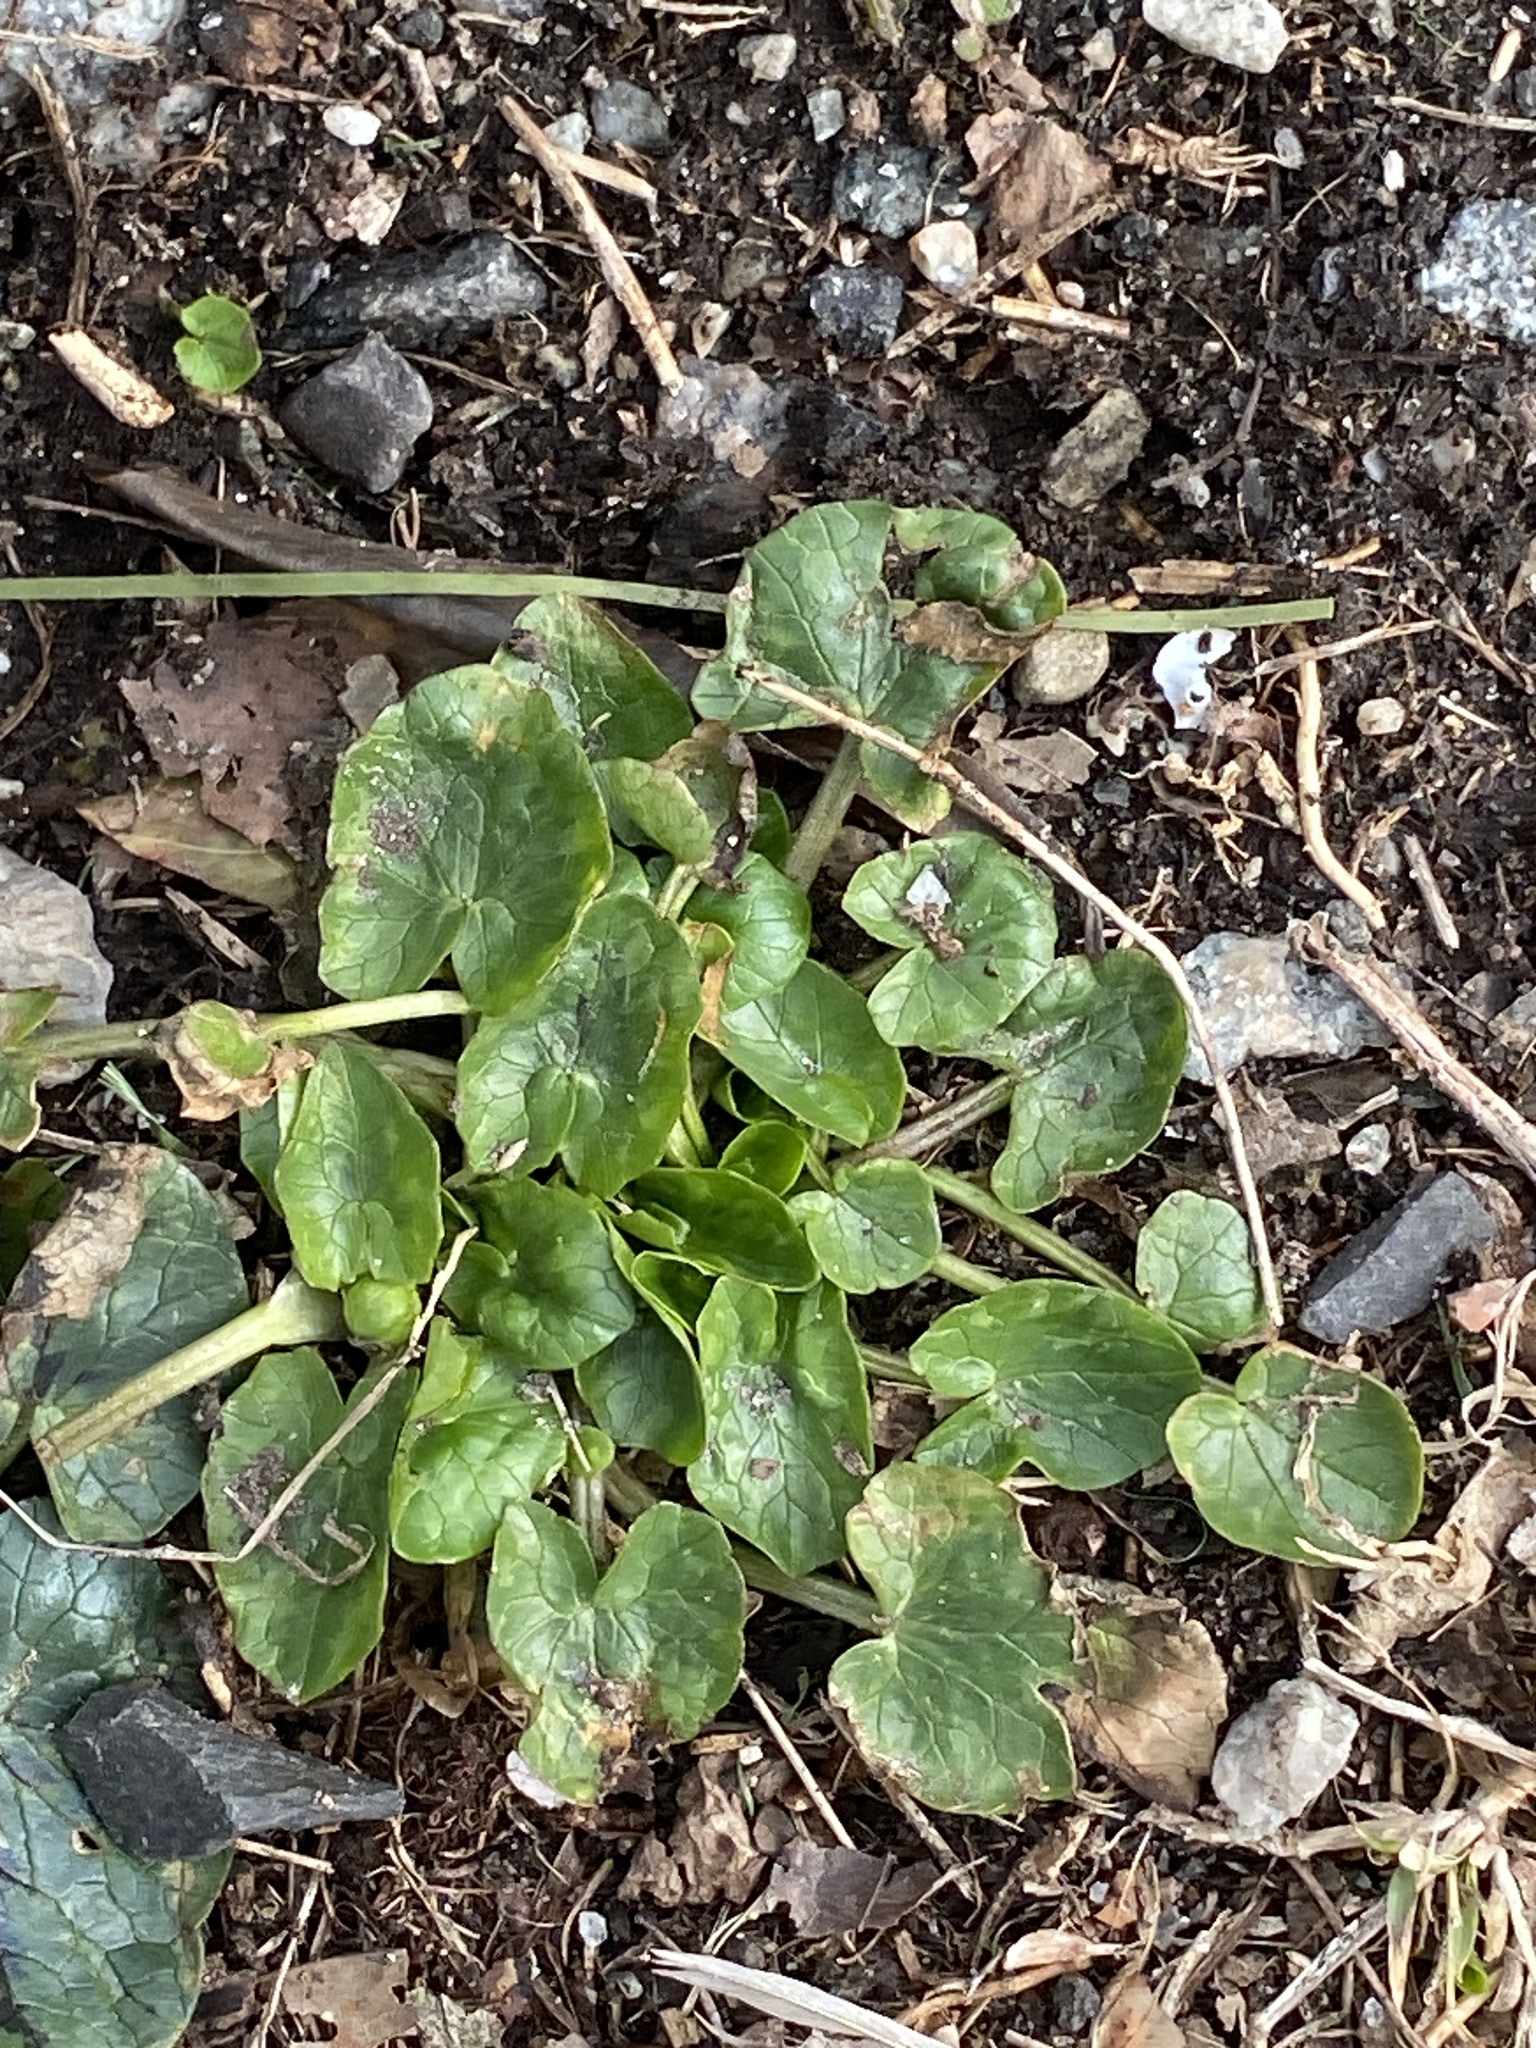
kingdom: Plantae
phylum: Tracheophyta
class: Magnoliopsida
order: Ranunculales
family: Ranunculaceae
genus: Ficaria
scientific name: Ficaria verna
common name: Lesser celandine
